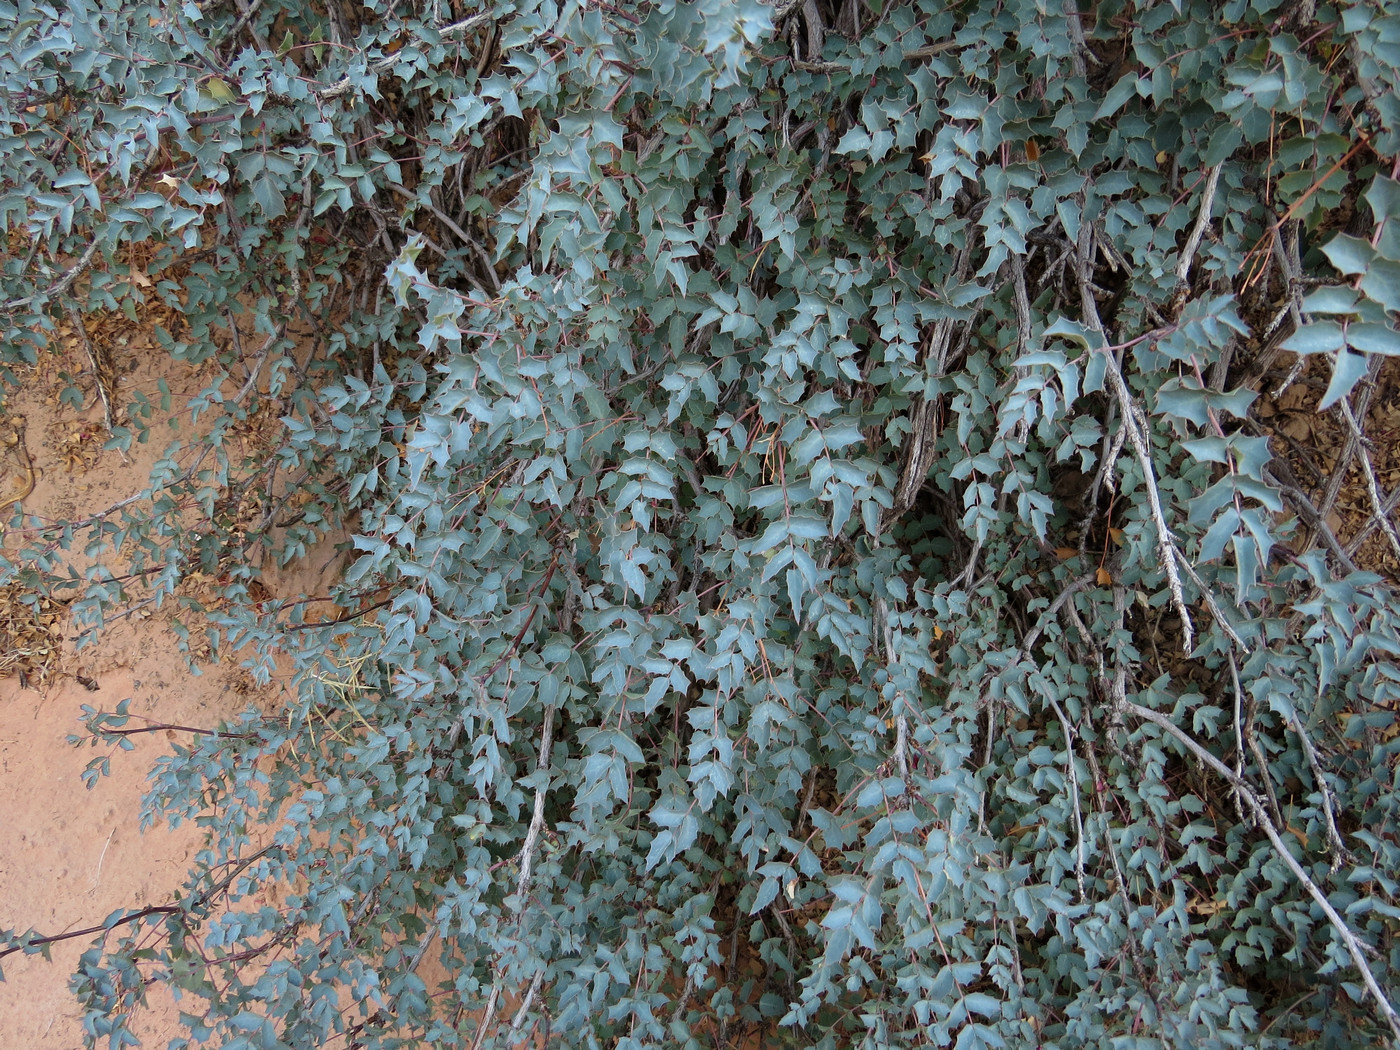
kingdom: Plantae
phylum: Tracheophyta
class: Magnoliopsida
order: Ranunculales
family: Berberidaceae
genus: Alloberberis
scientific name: Alloberberis fremontii
